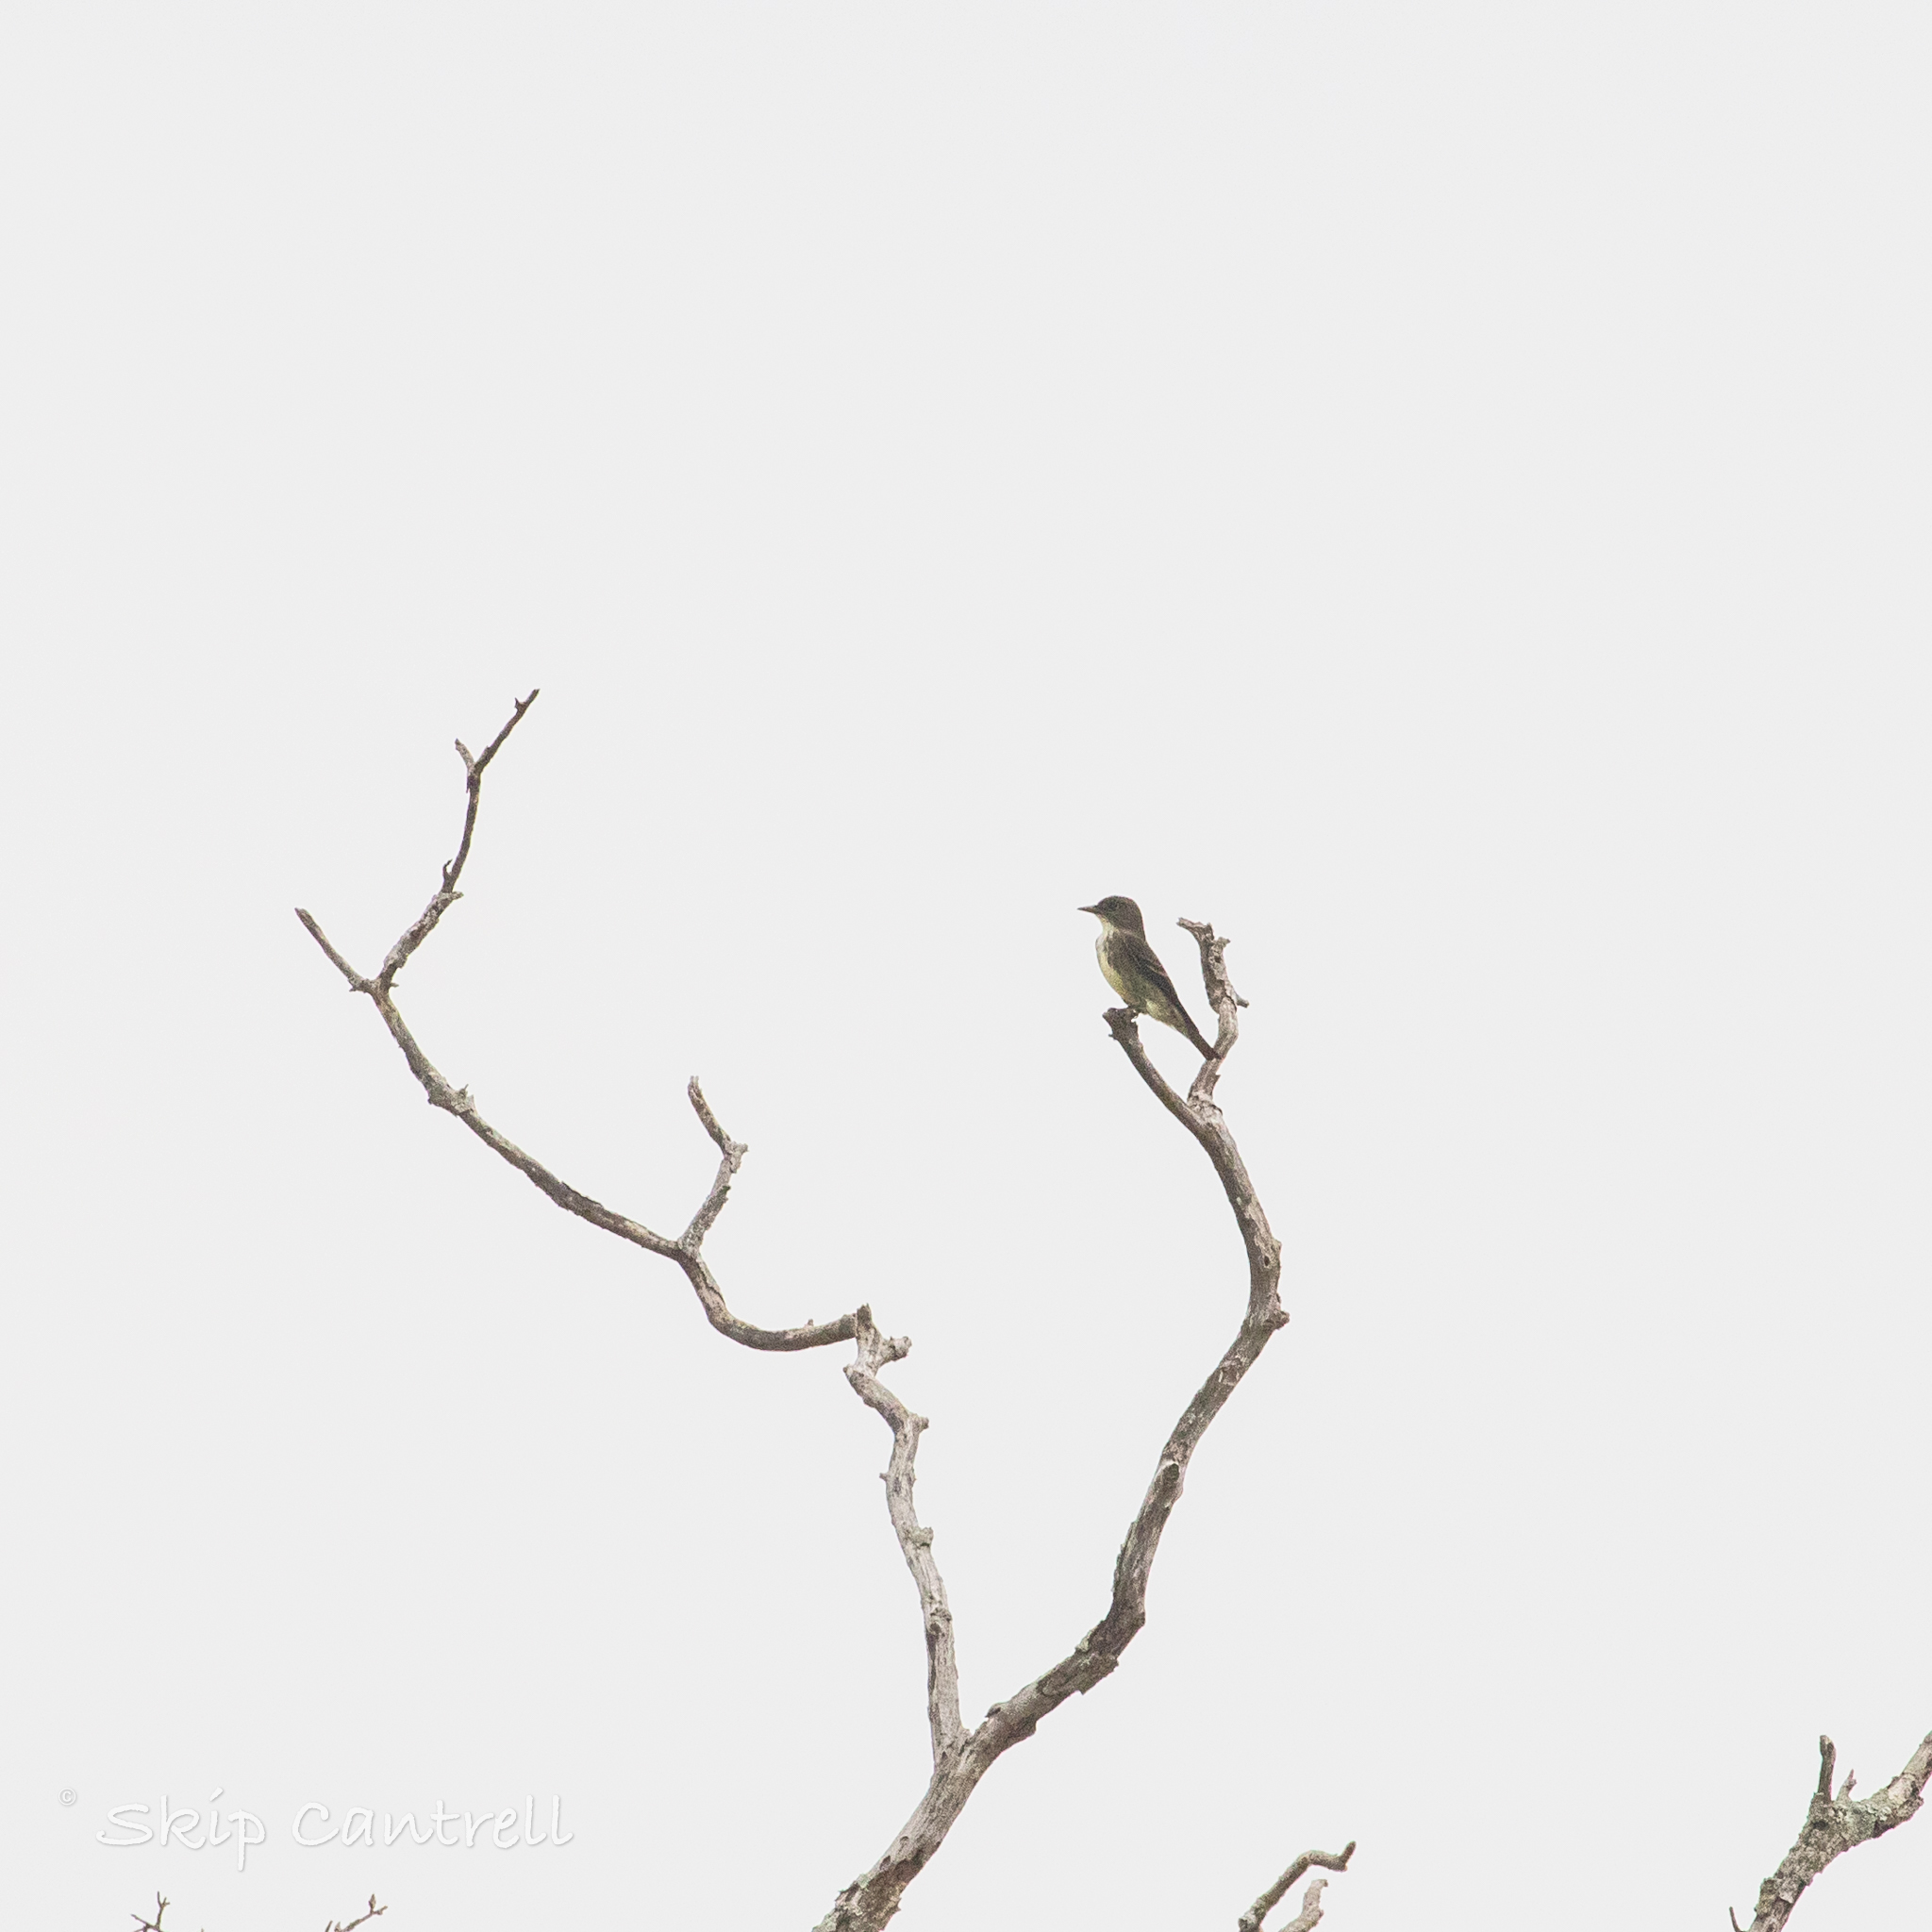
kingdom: Animalia
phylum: Chordata
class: Aves
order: Passeriformes
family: Tyrannidae
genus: Contopus
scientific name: Contopus cooperi
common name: Olive-sided flycatcher
